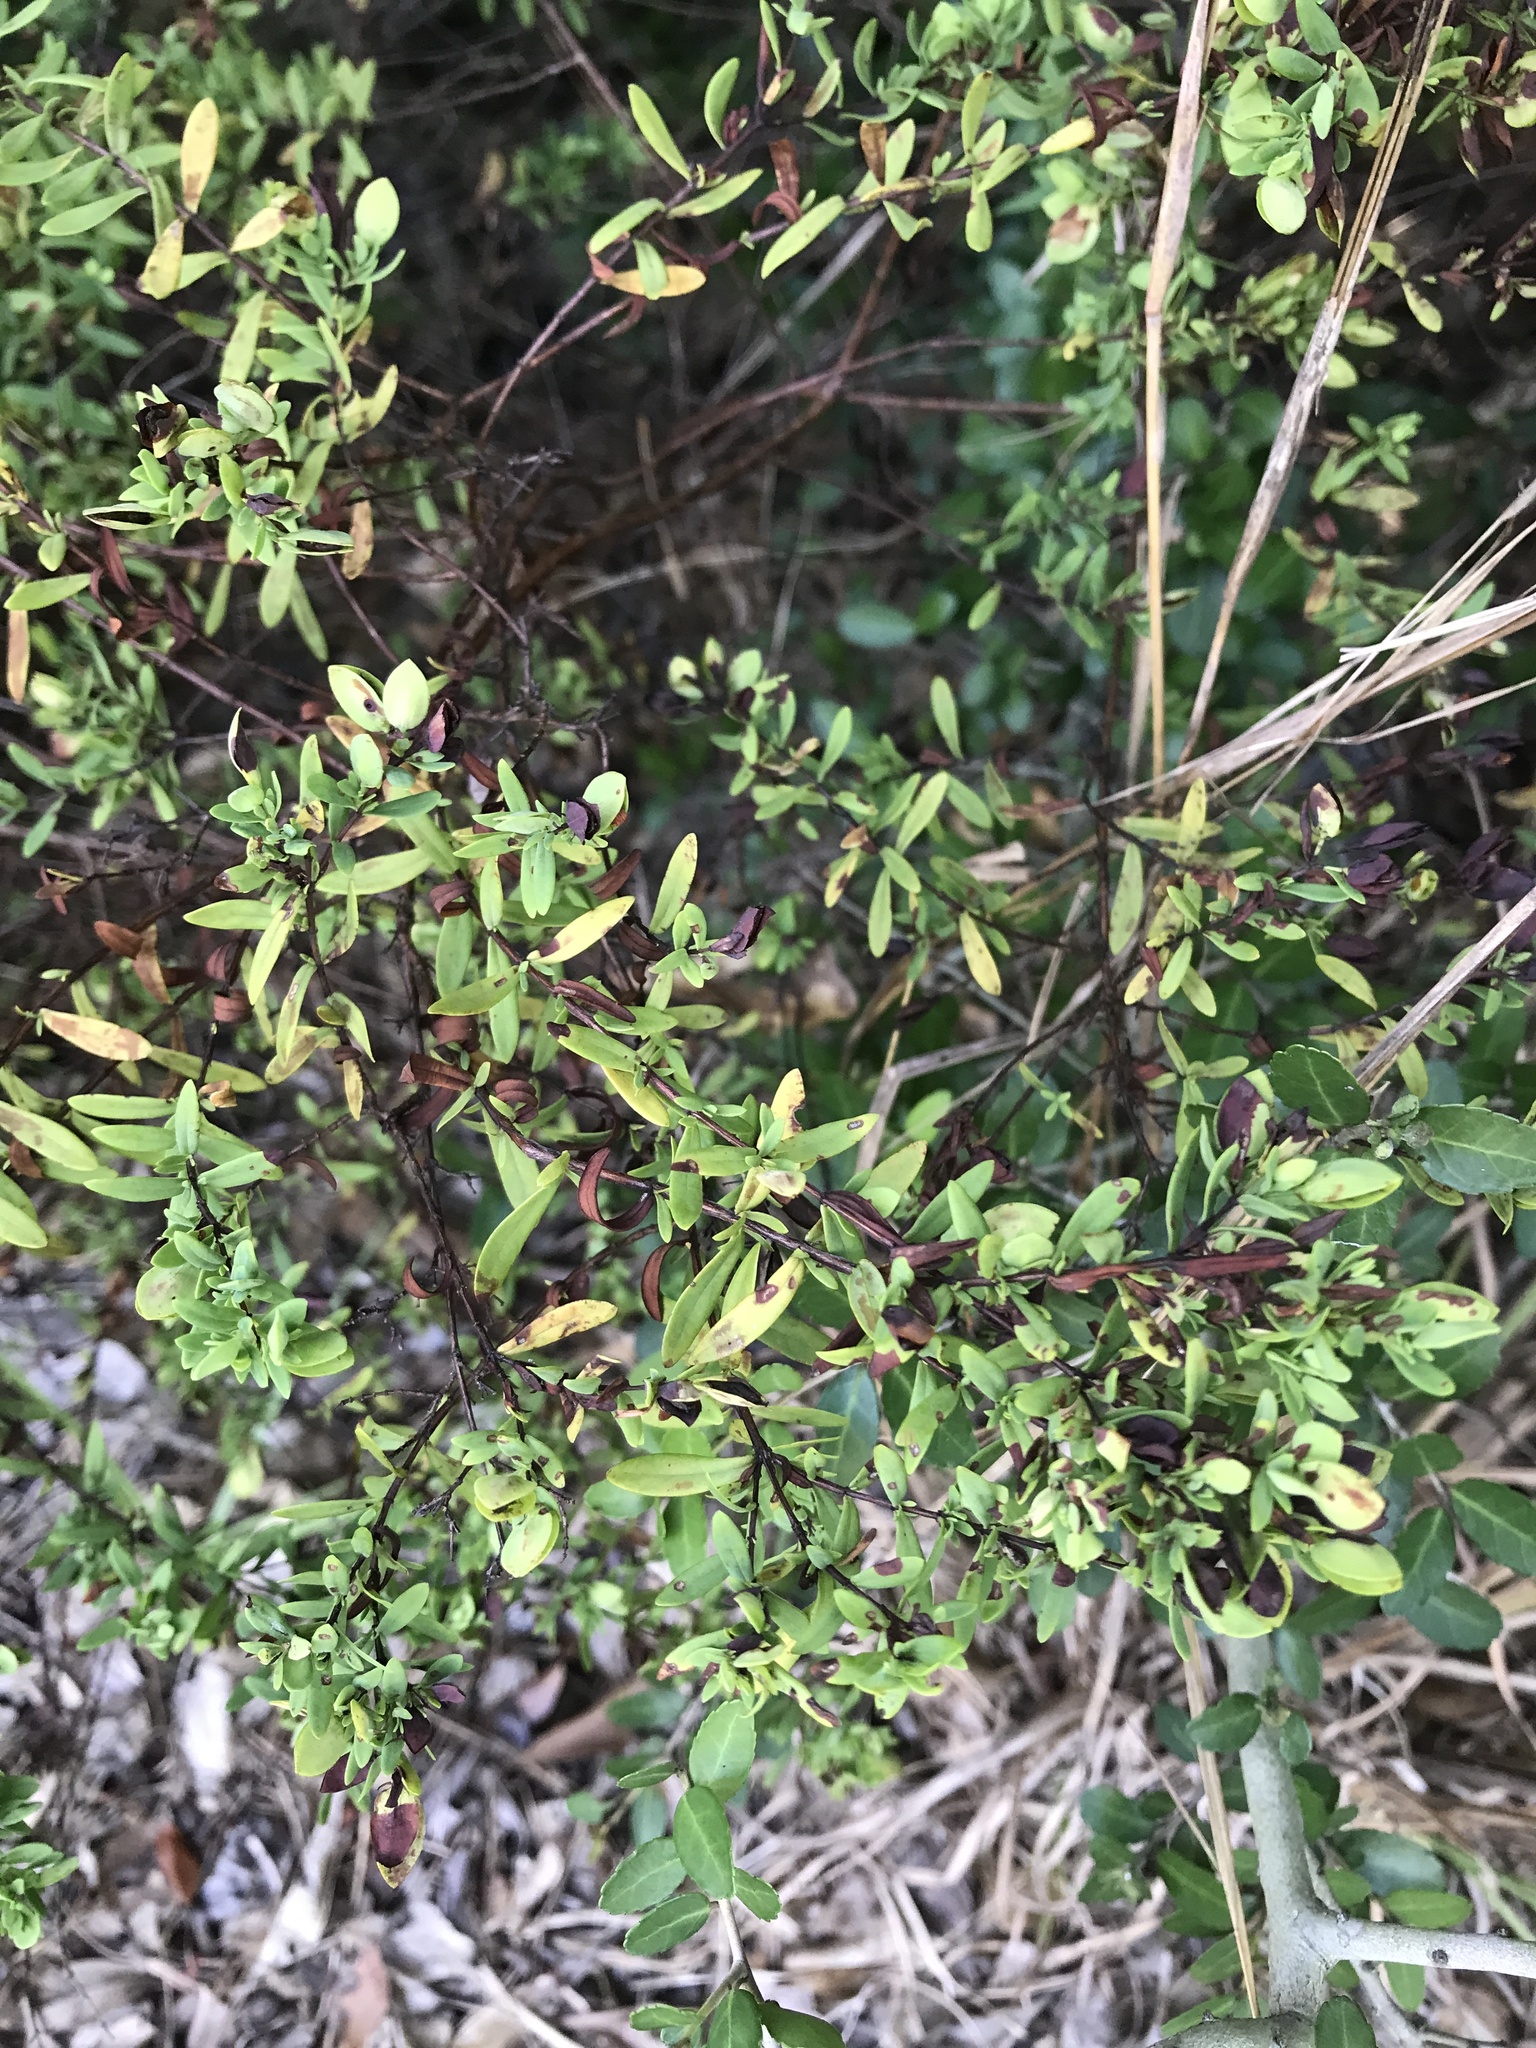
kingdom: Plantae
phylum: Tracheophyta
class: Magnoliopsida
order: Malpighiales
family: Hypericaceae
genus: Hypericum
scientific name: Hypericum hypericoides
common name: St. andrew's cross
